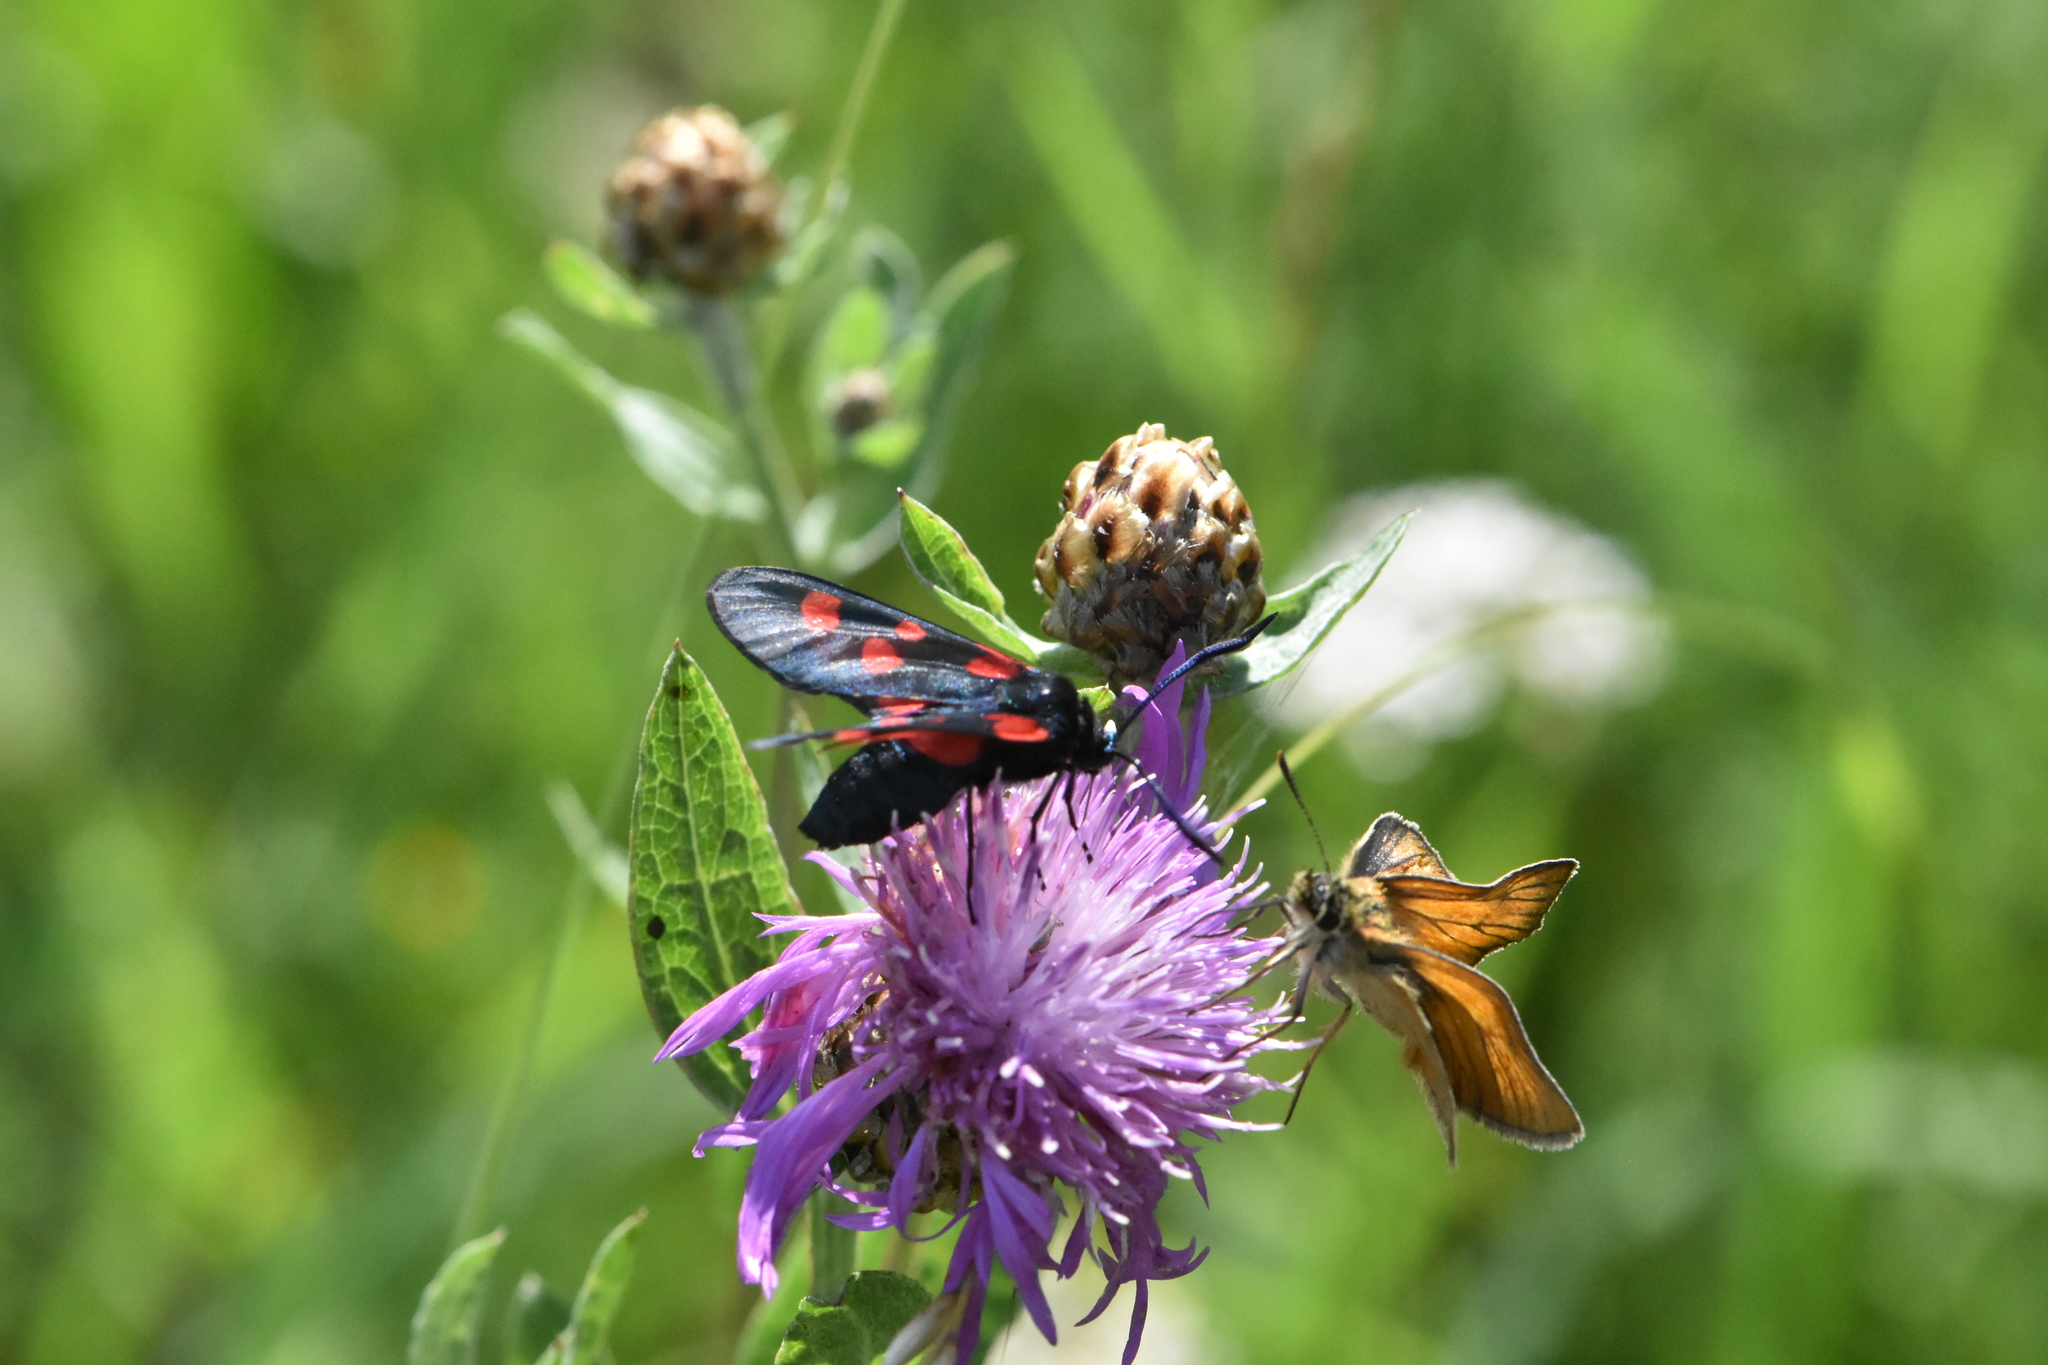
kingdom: Animalia
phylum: Arthropoda
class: Insecta
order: Lepidoptera
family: Zygaenidae
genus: Zygaena
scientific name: Zygaena lonicerae
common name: Narrow-bordered five-spot burnet
